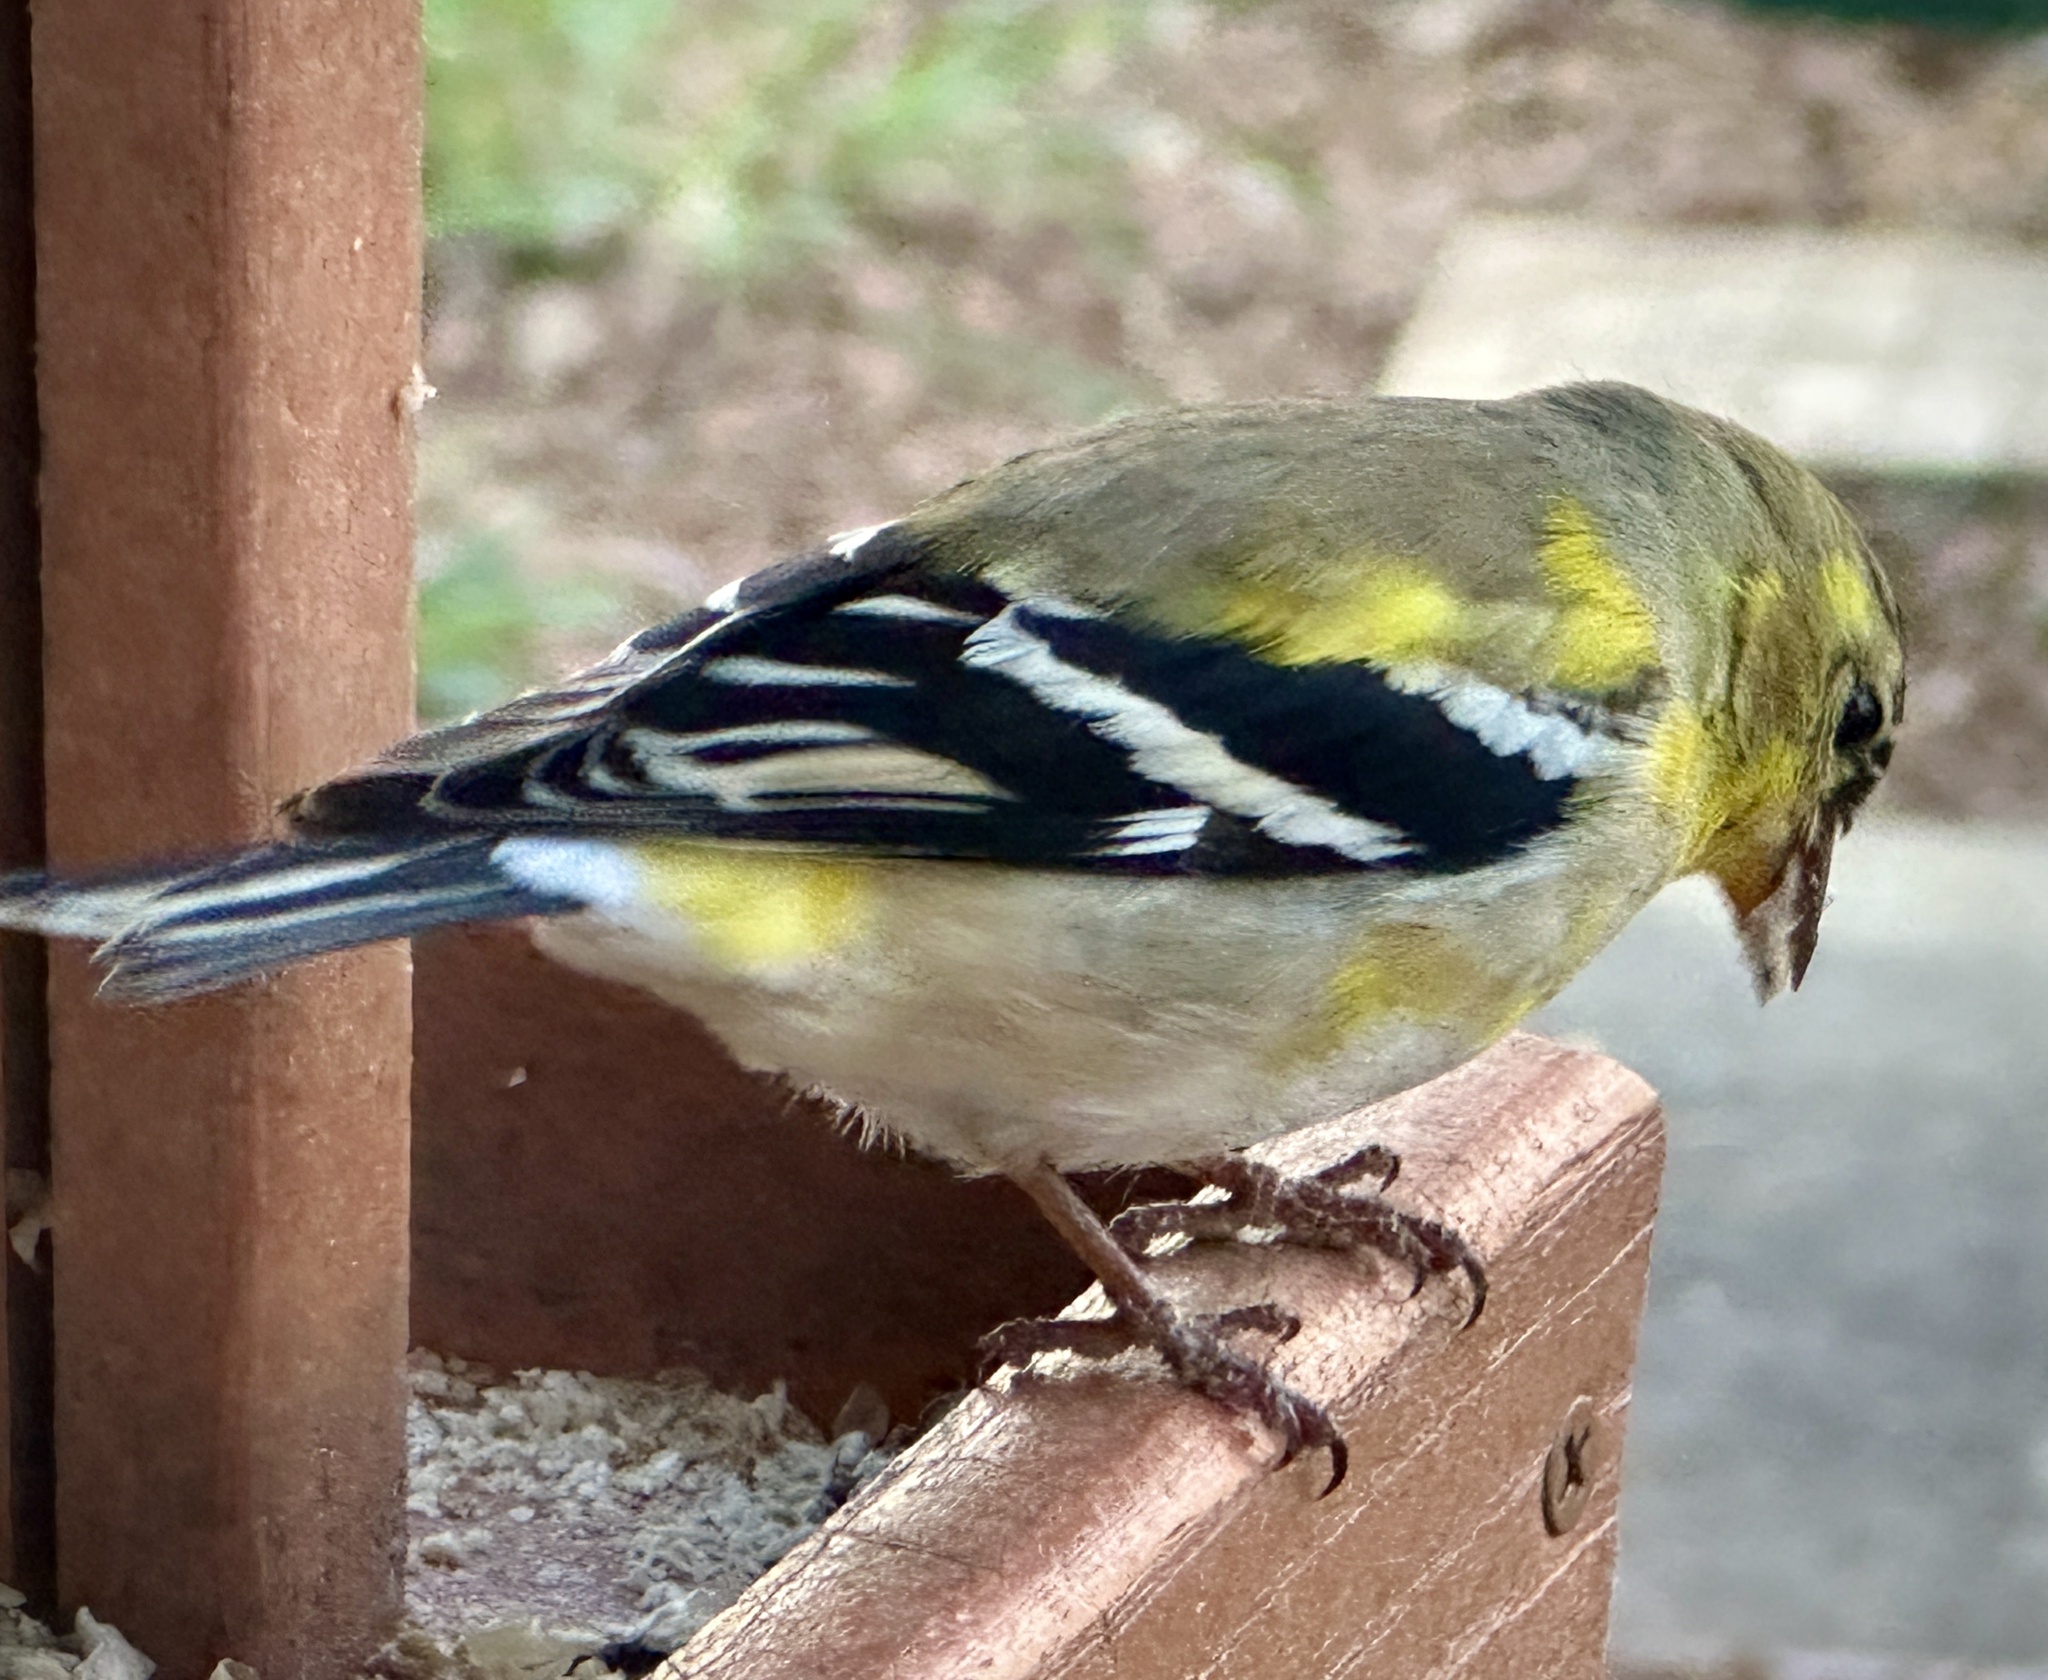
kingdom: Animalia
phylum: Chordata
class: Aves
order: Passeriformes
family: Fringillidae
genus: Spinus
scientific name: Spinus tristis
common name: American goldfinch
